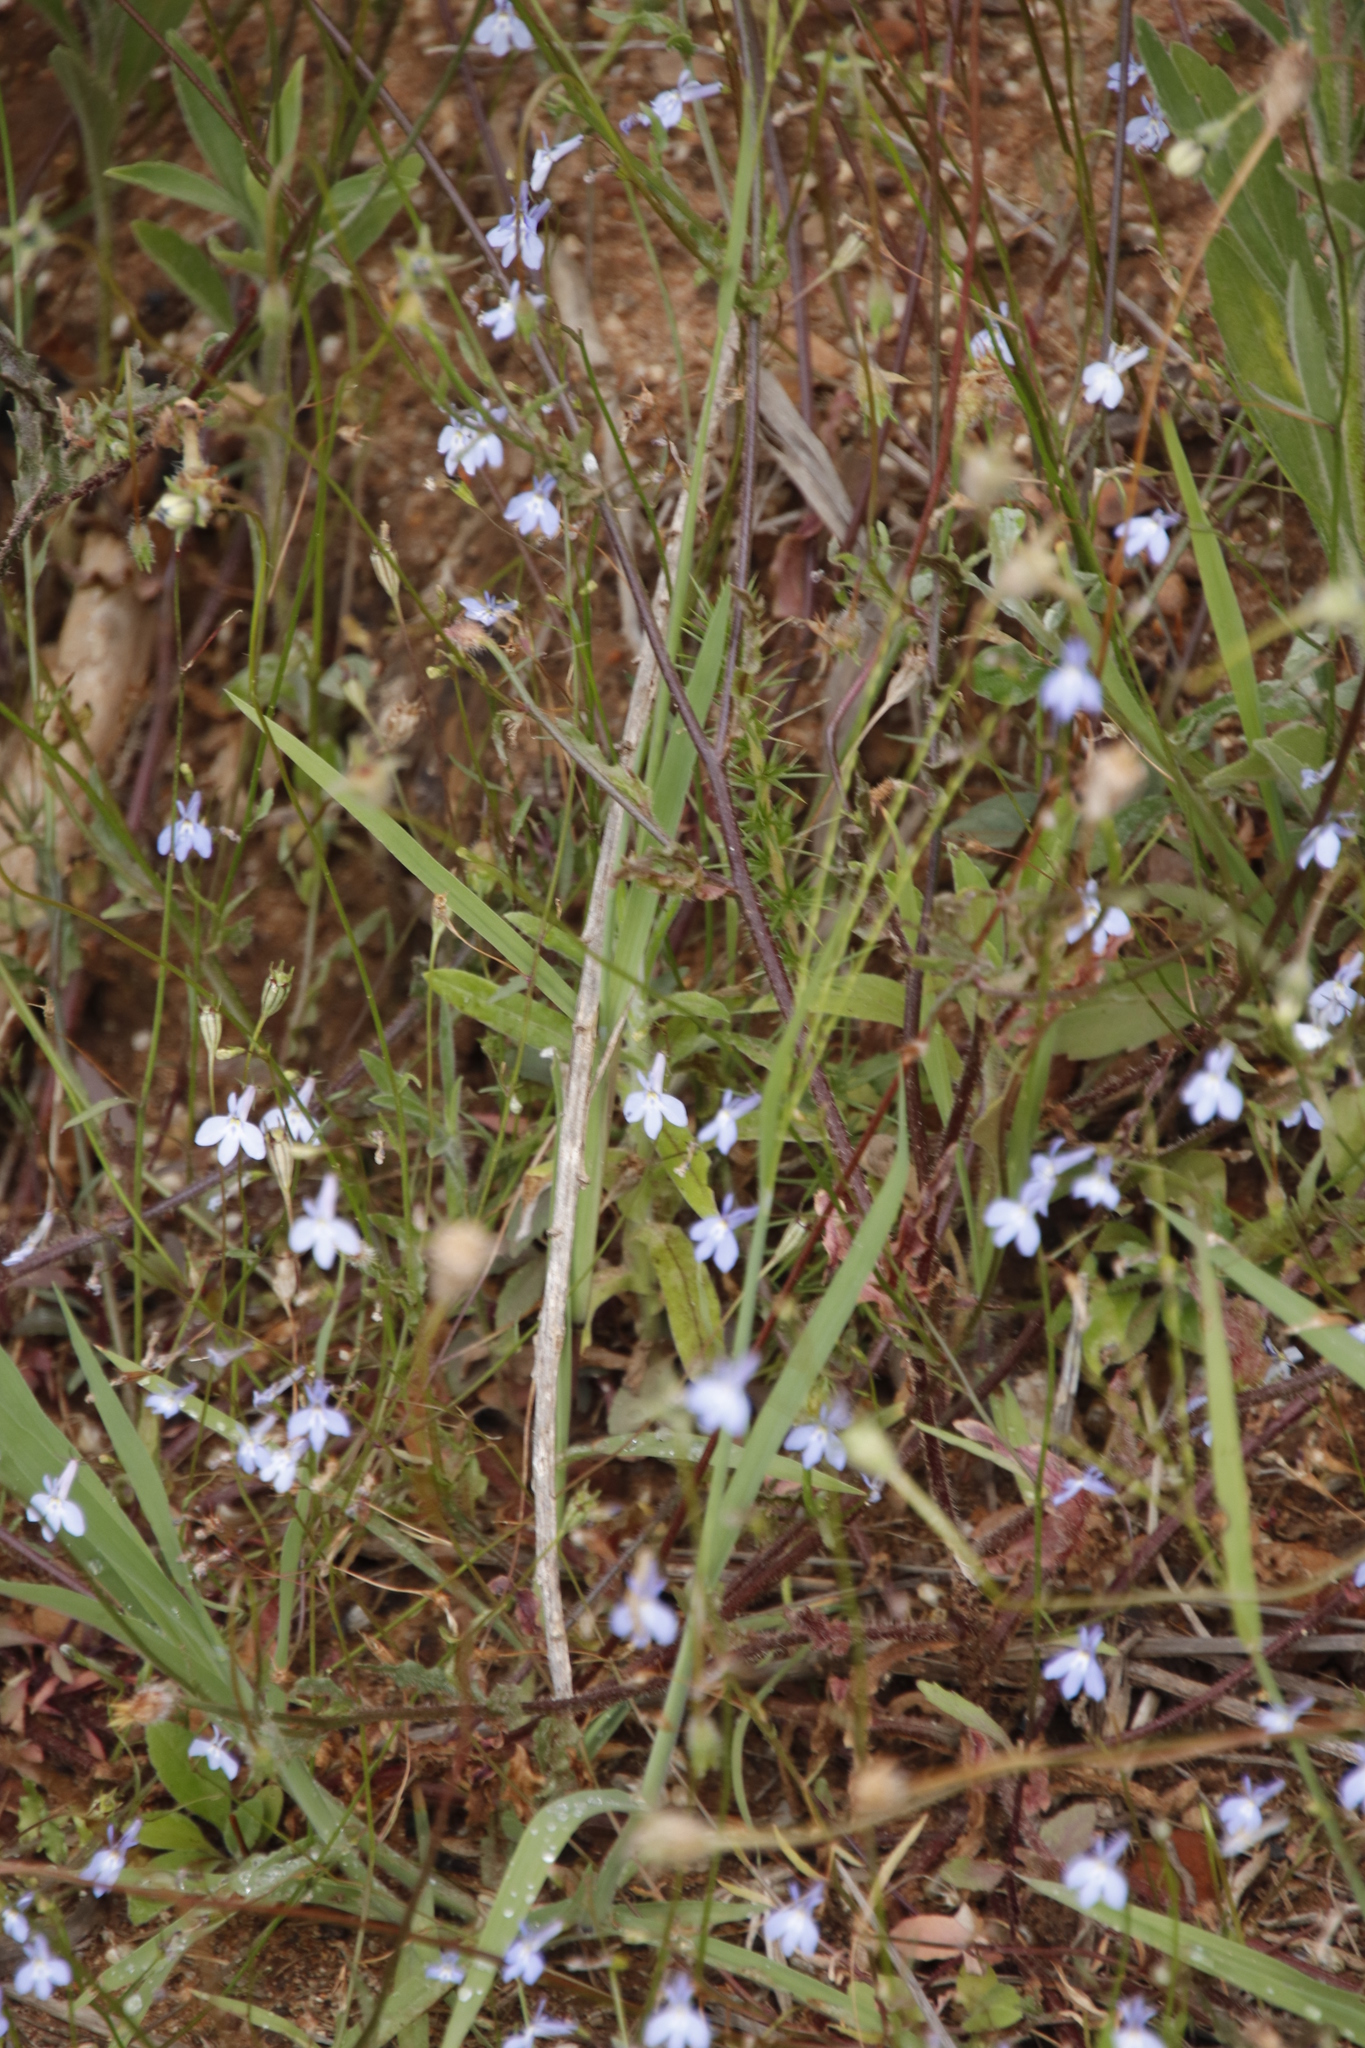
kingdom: Plantae
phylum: Tracheophyta
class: Magnoliopsida
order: Asterales
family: Campanulaceae
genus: Lobelia
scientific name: Lobelia erinus
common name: Edging lobelia
